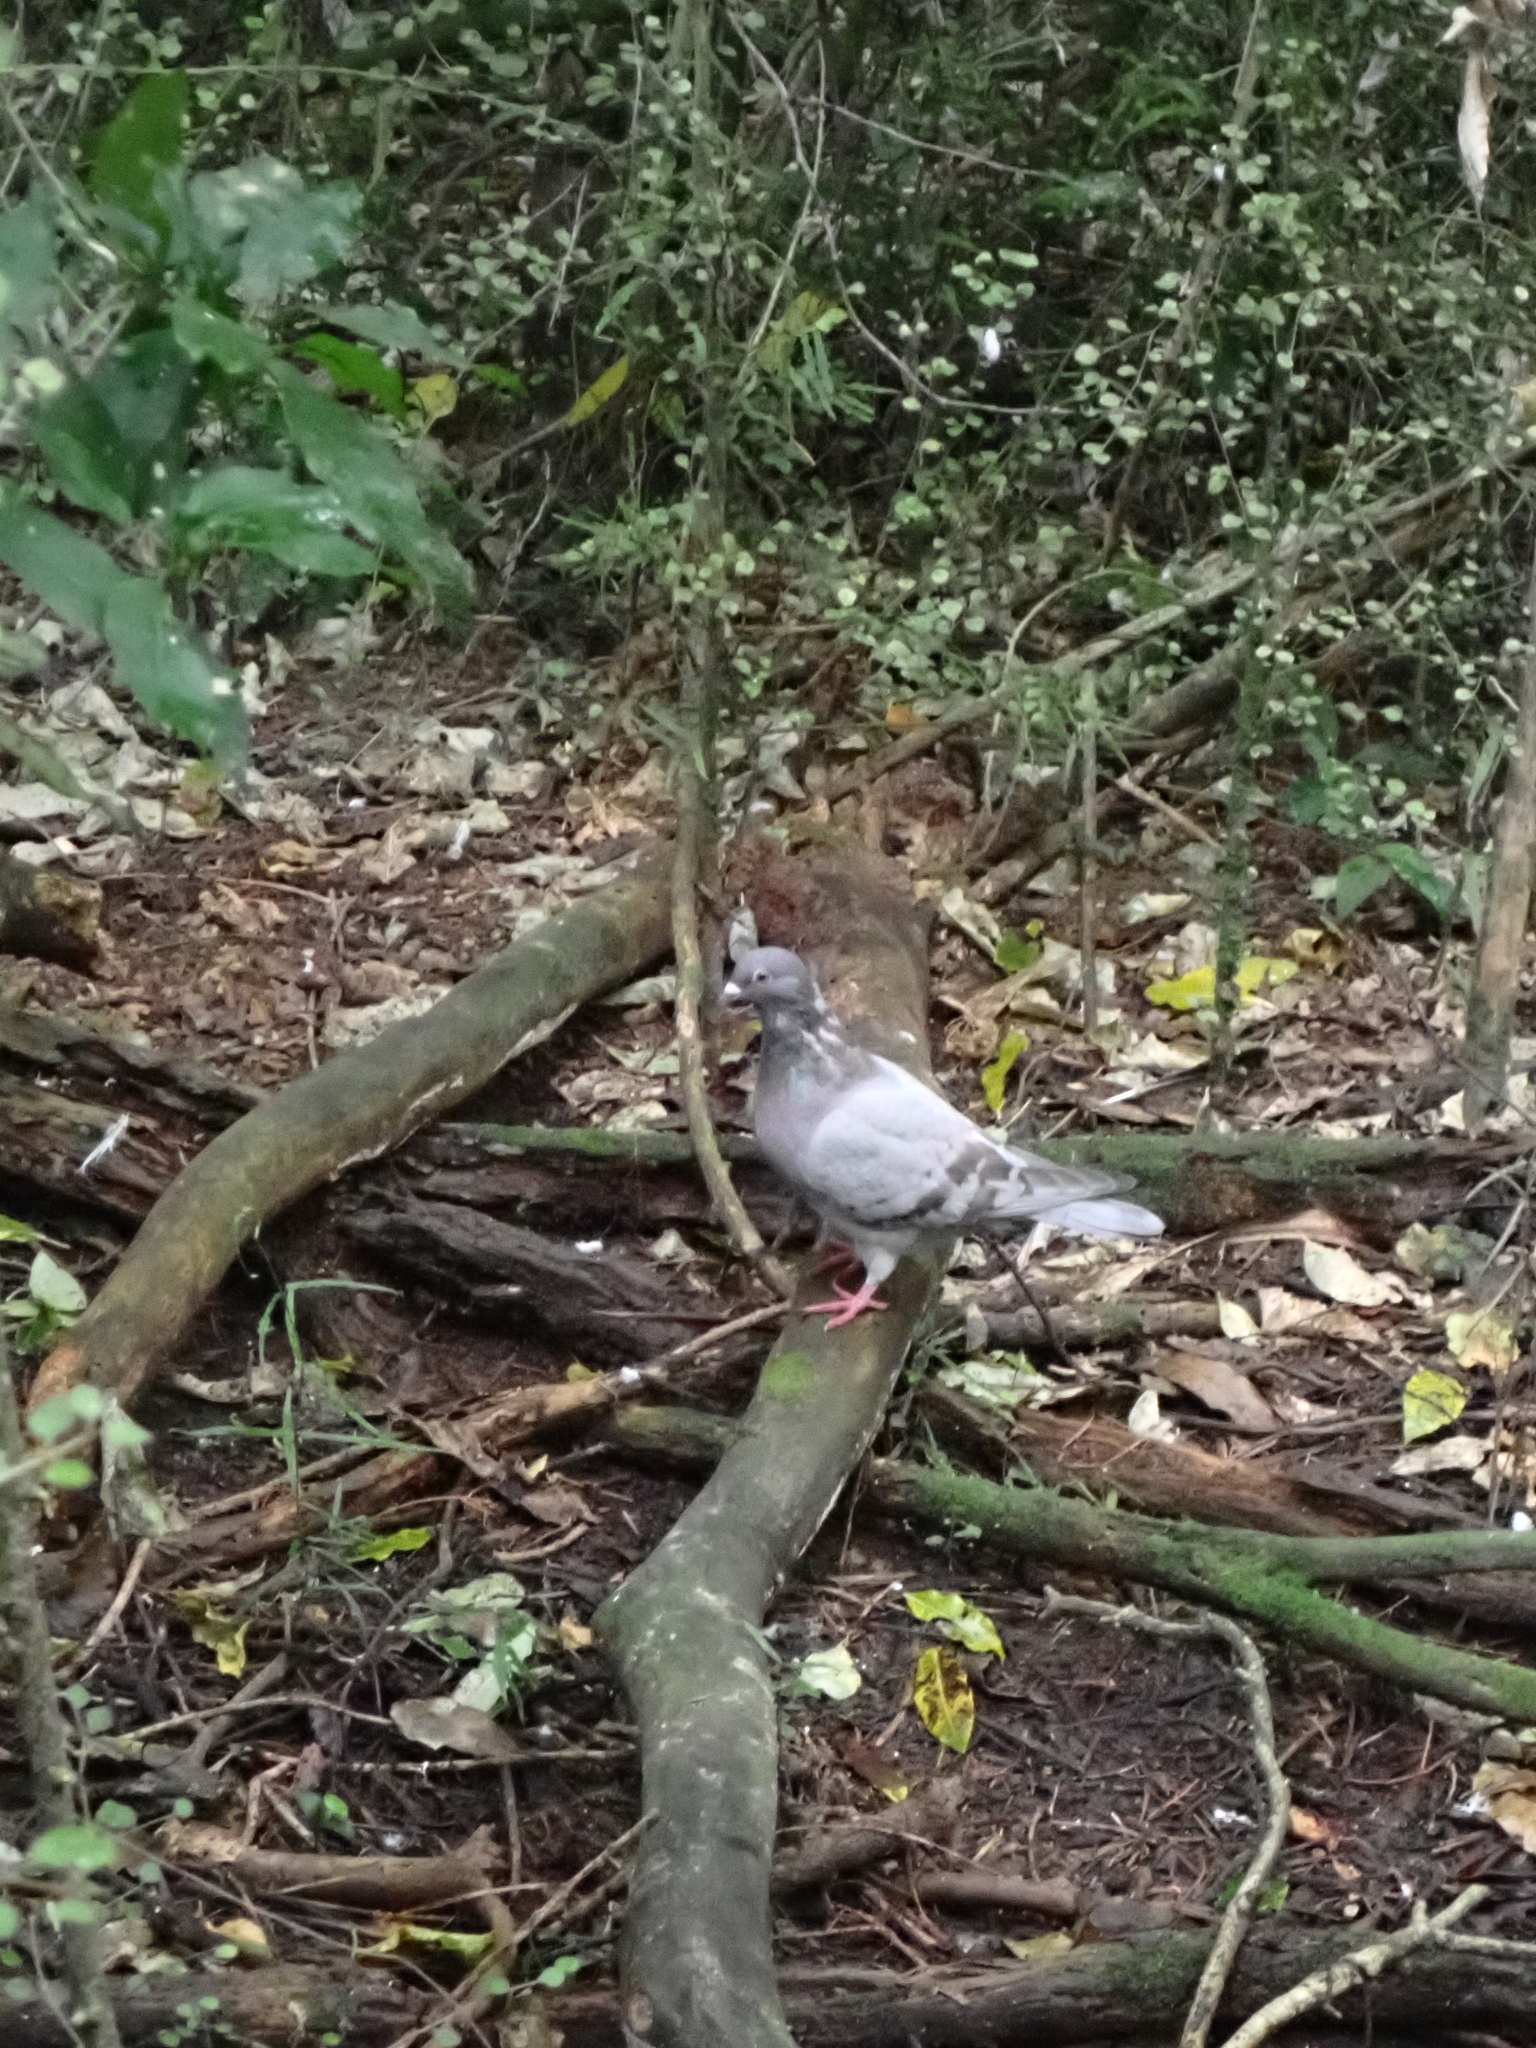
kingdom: Animalia
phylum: Chordata
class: Aves
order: Columbiformes
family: Columbidae
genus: Columba
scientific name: Columba livia
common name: Rock pigeon
